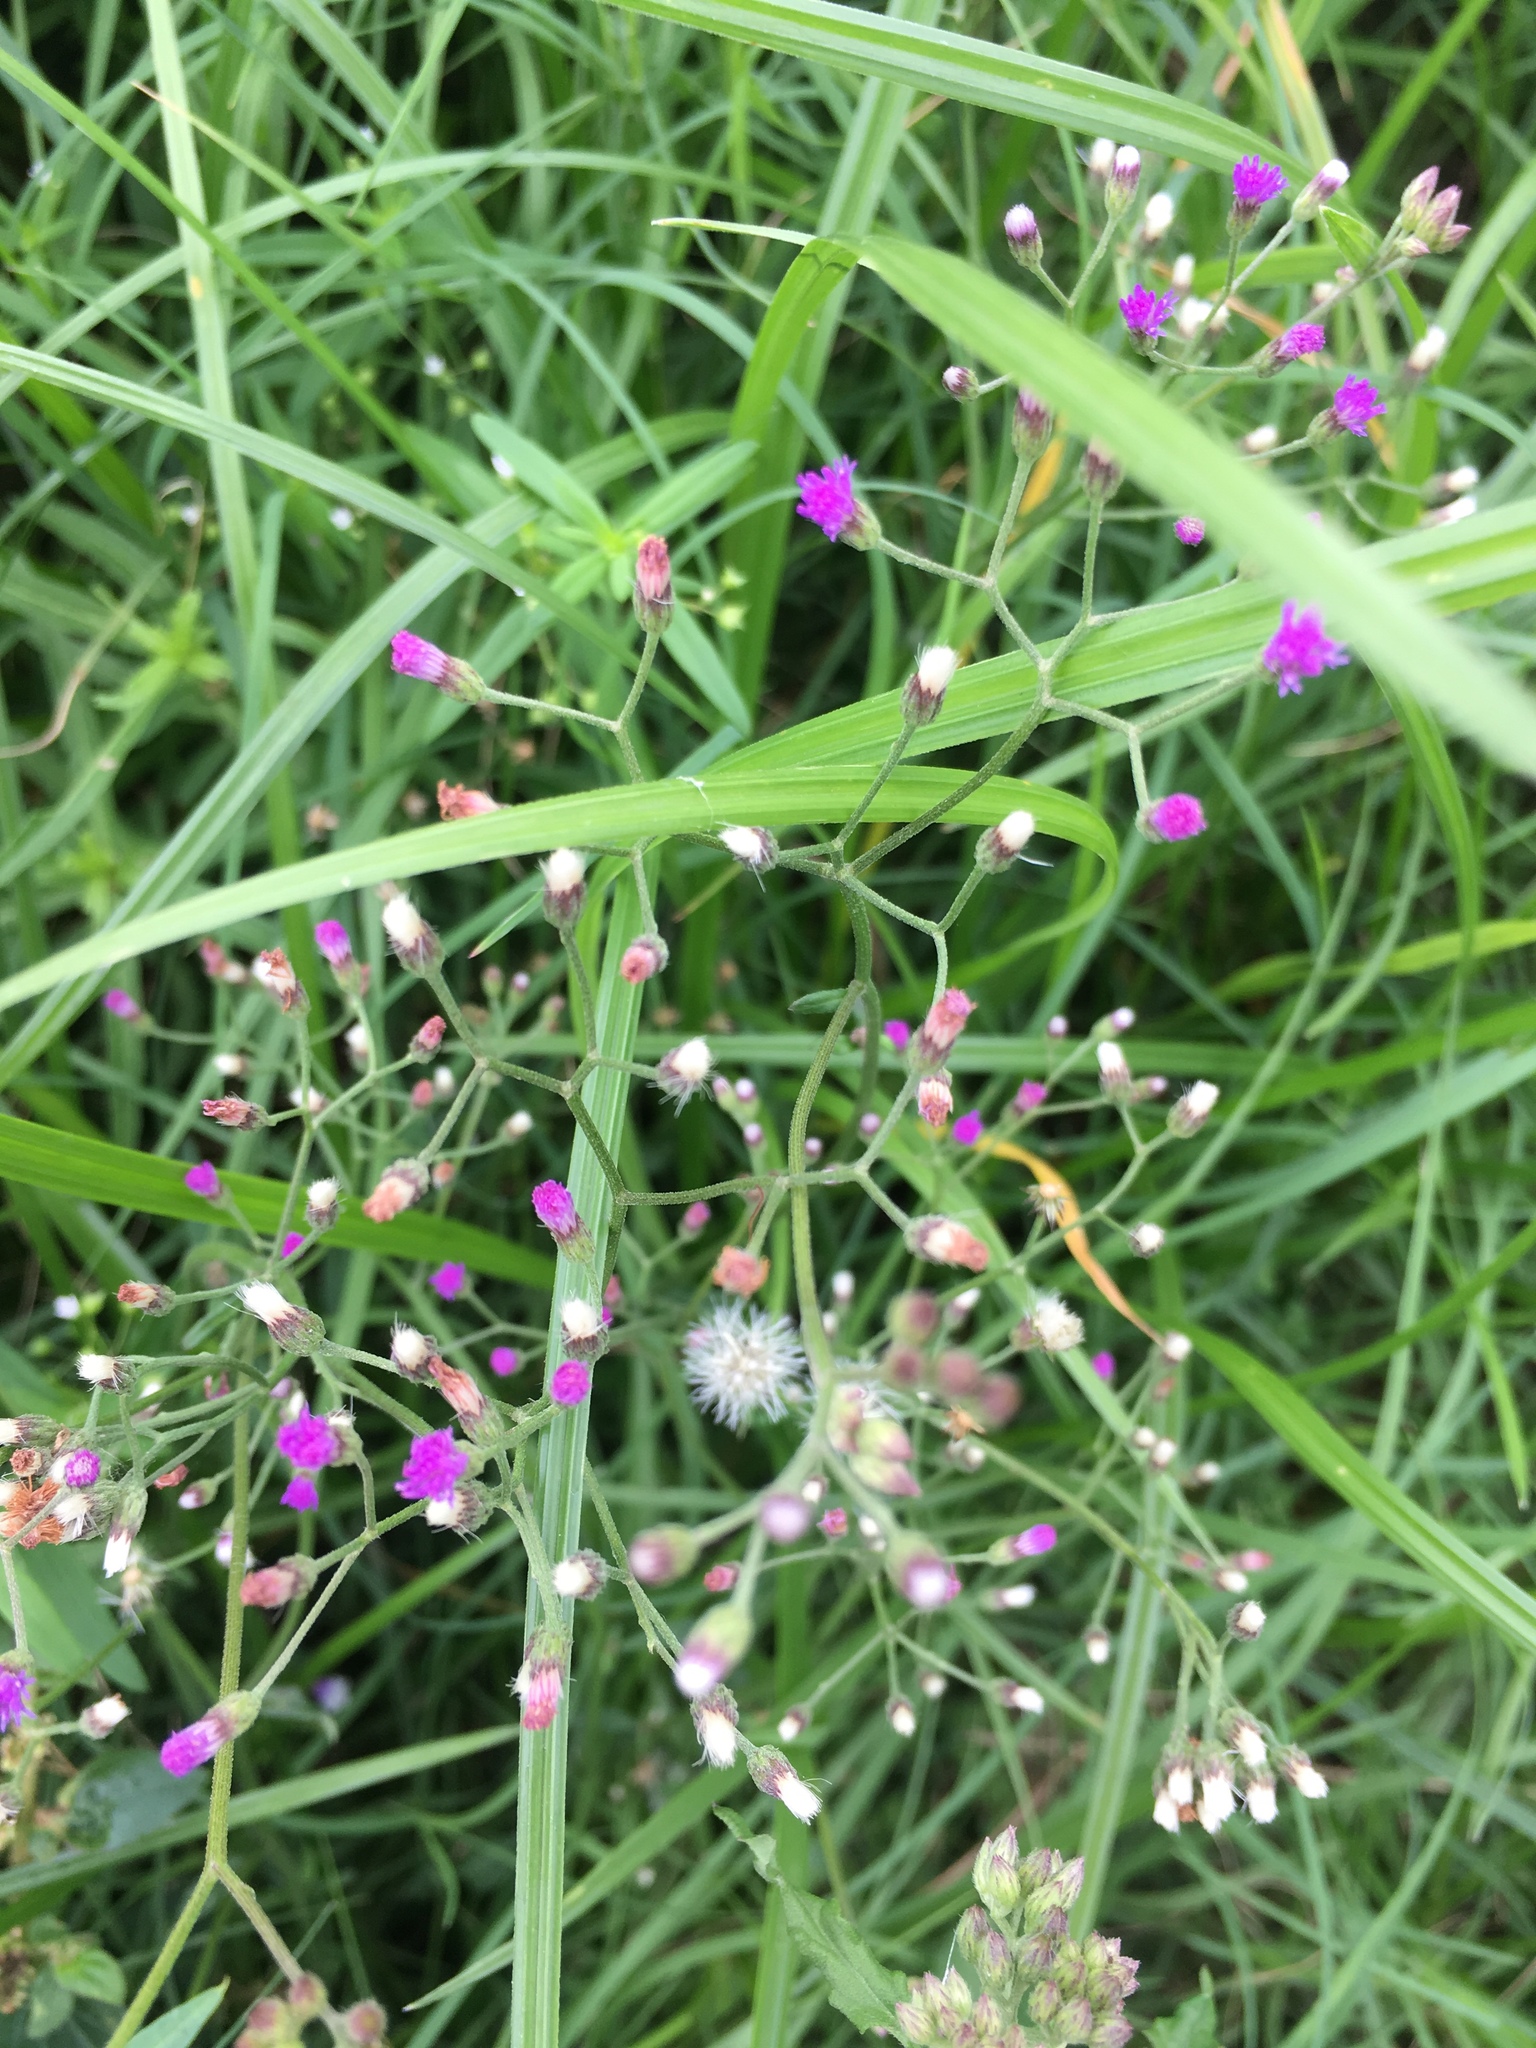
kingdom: Plantae
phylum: Tracheophyta
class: Magnoliopsida
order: Asterales
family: Asteraceae
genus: Cyanthillium
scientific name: Cyanthillium cinereum
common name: Little ironweed
